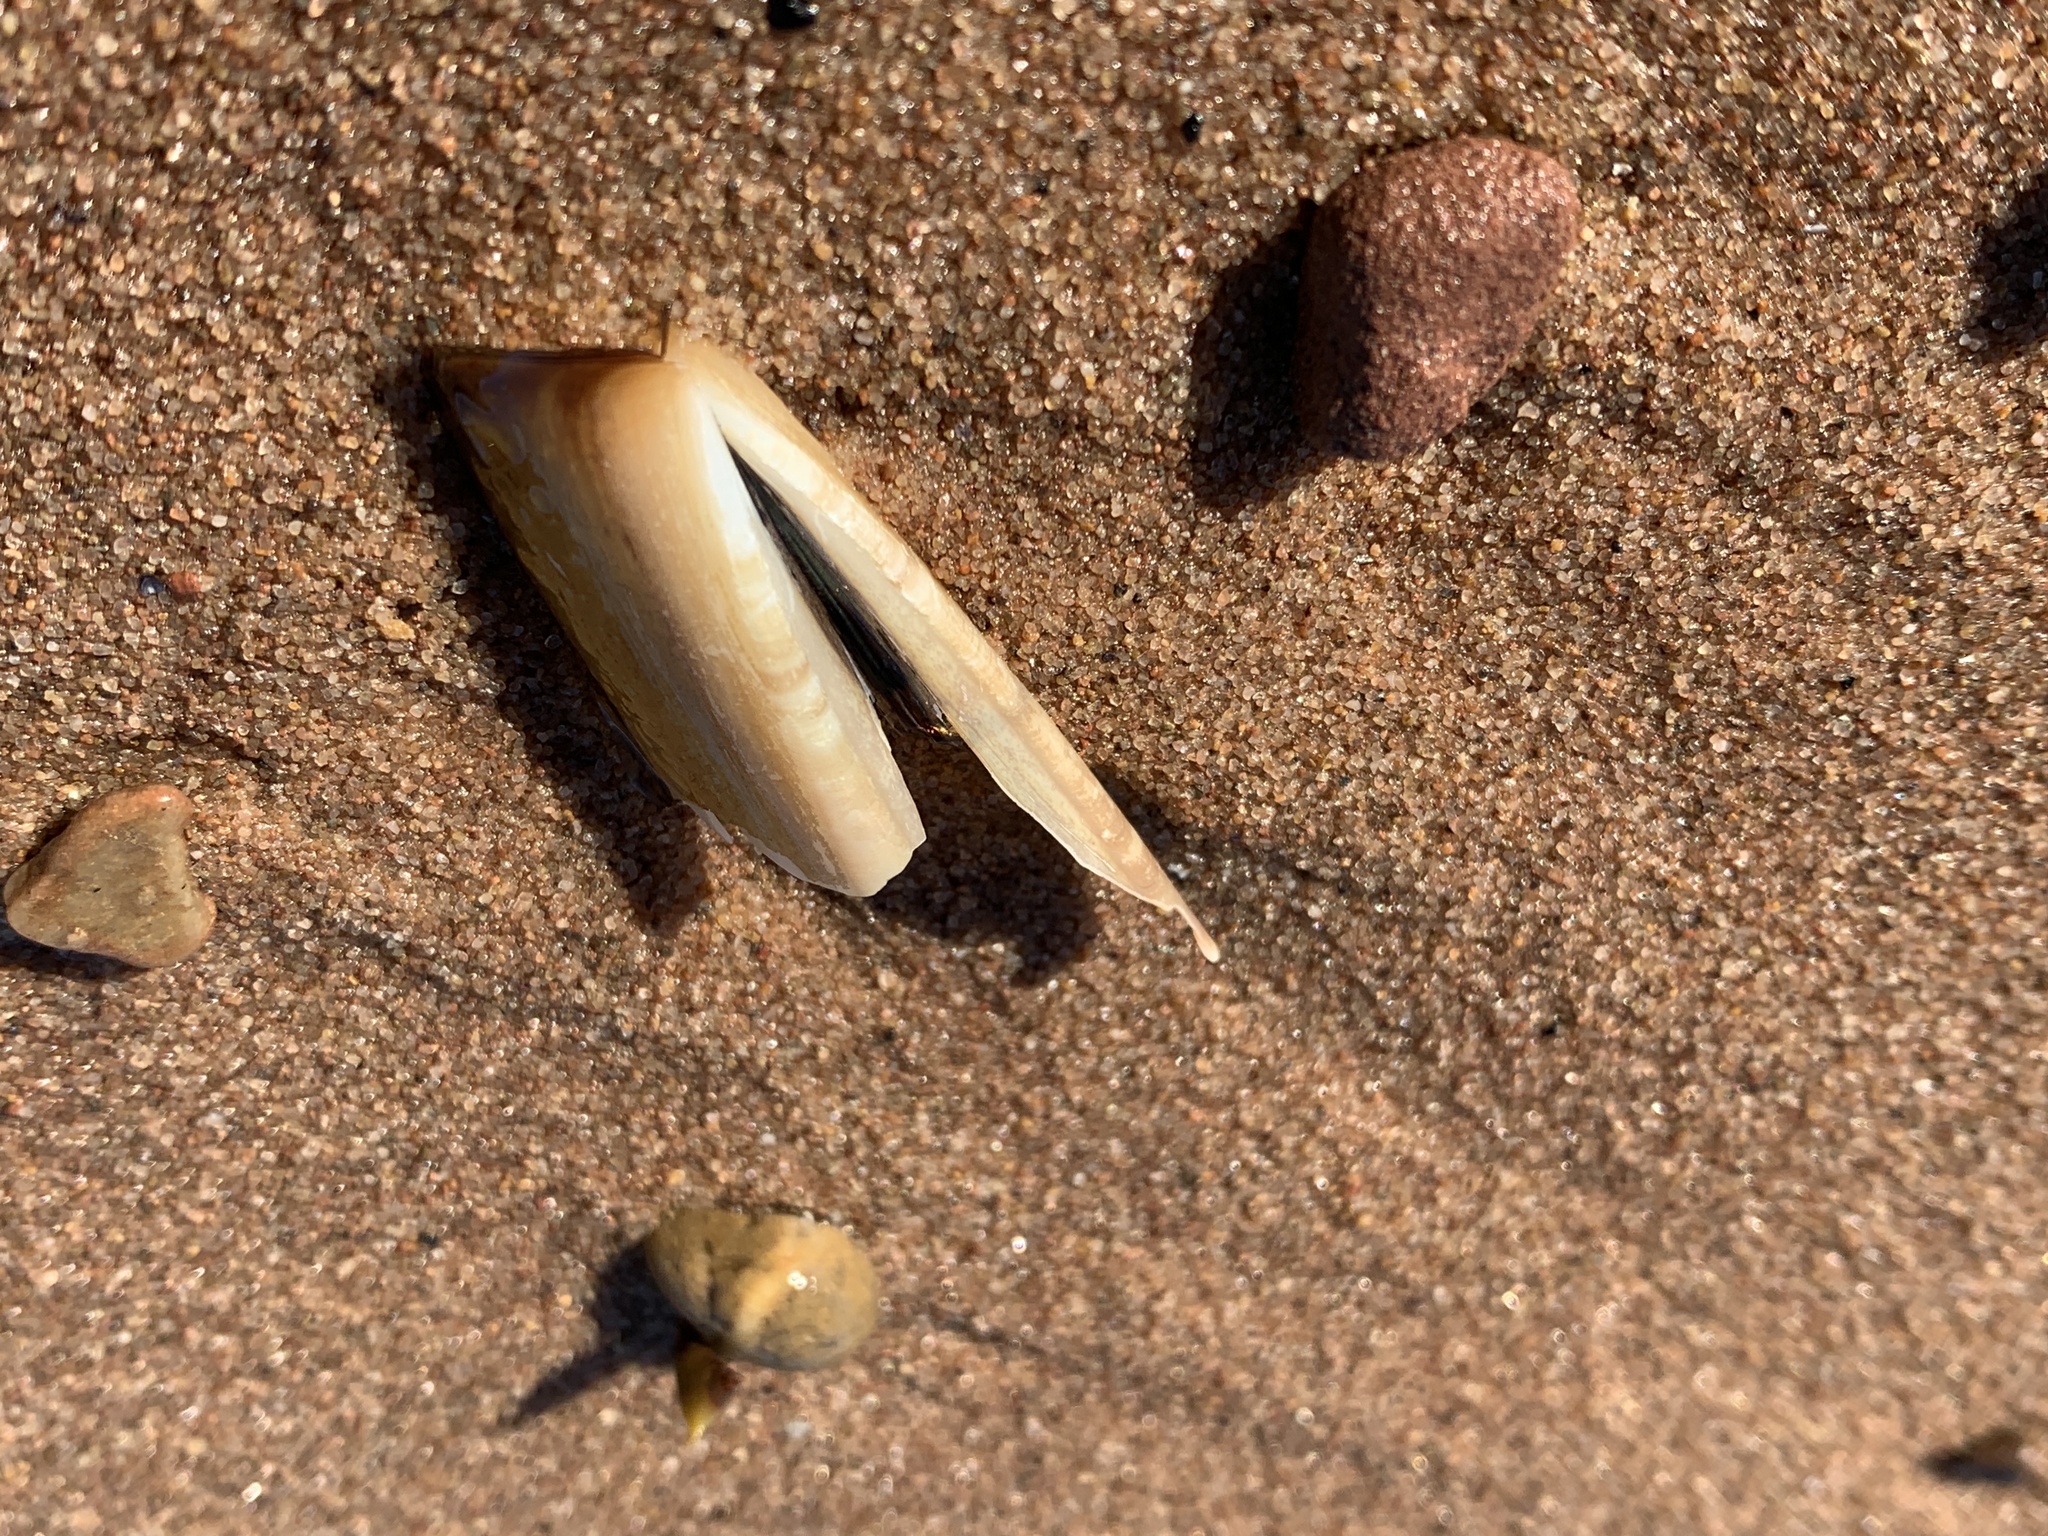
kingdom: Animalia
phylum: Mollusca
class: Bivalvia
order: Adapedonta
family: Pharidae
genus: Ensis
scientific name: Ensis leei
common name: American jack knife clam
